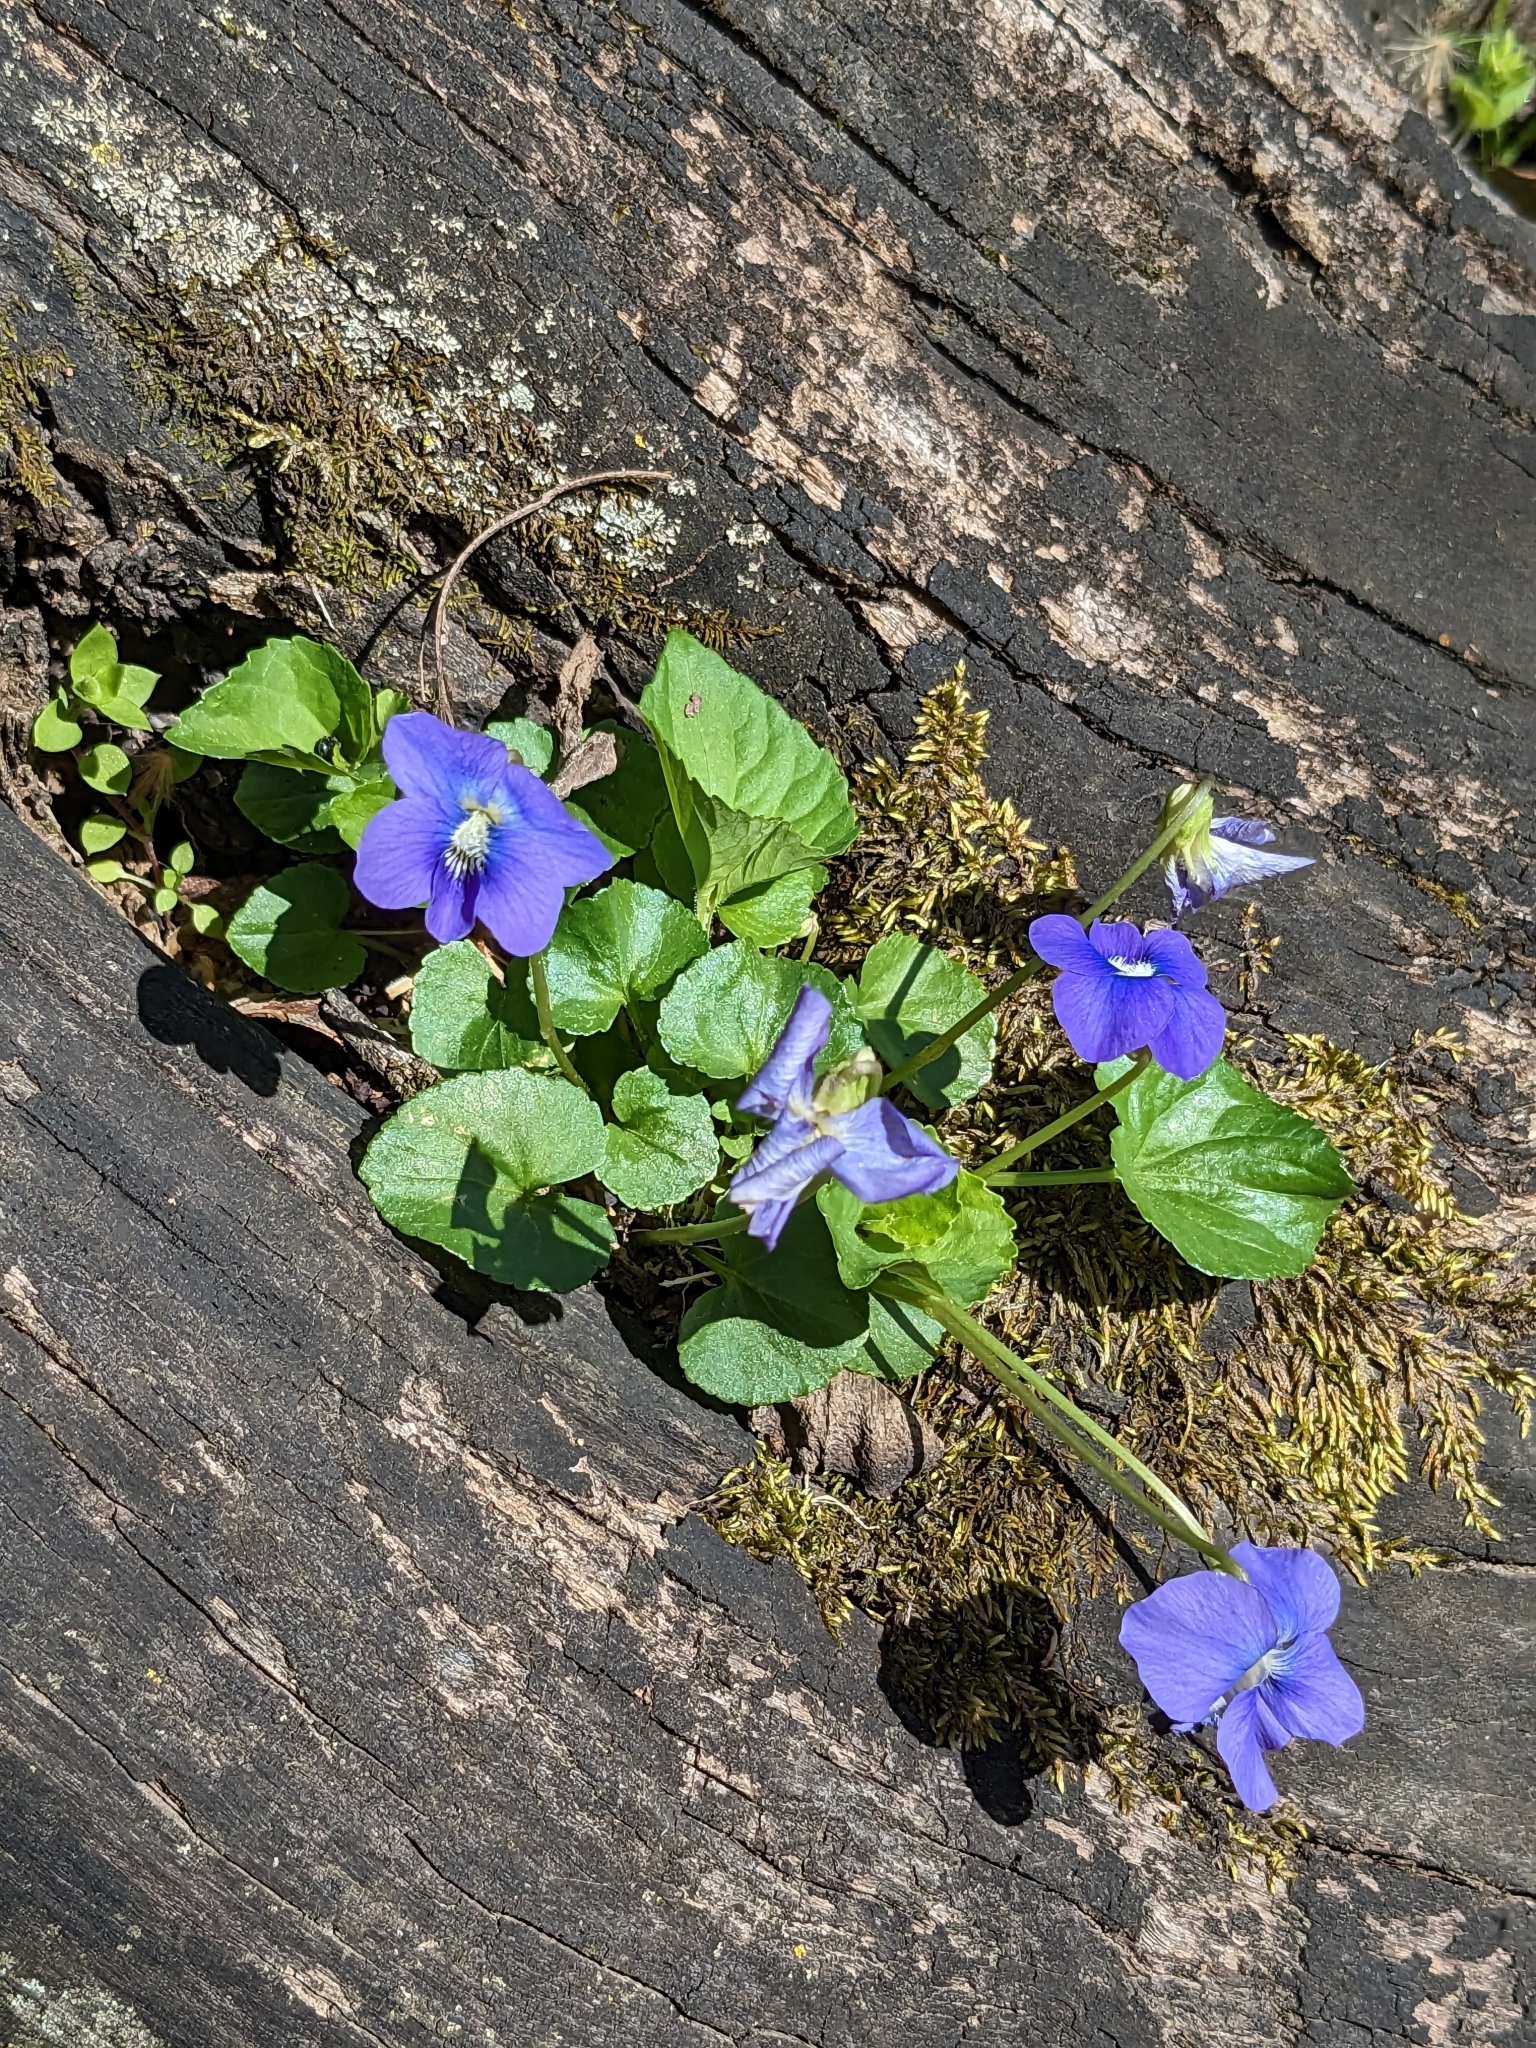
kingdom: Plantae
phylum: Tracheophyta
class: Magnoliopsida
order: Malpighiales
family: Violaceae
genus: Viola
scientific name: Viola sororia
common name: Dooryard violet
